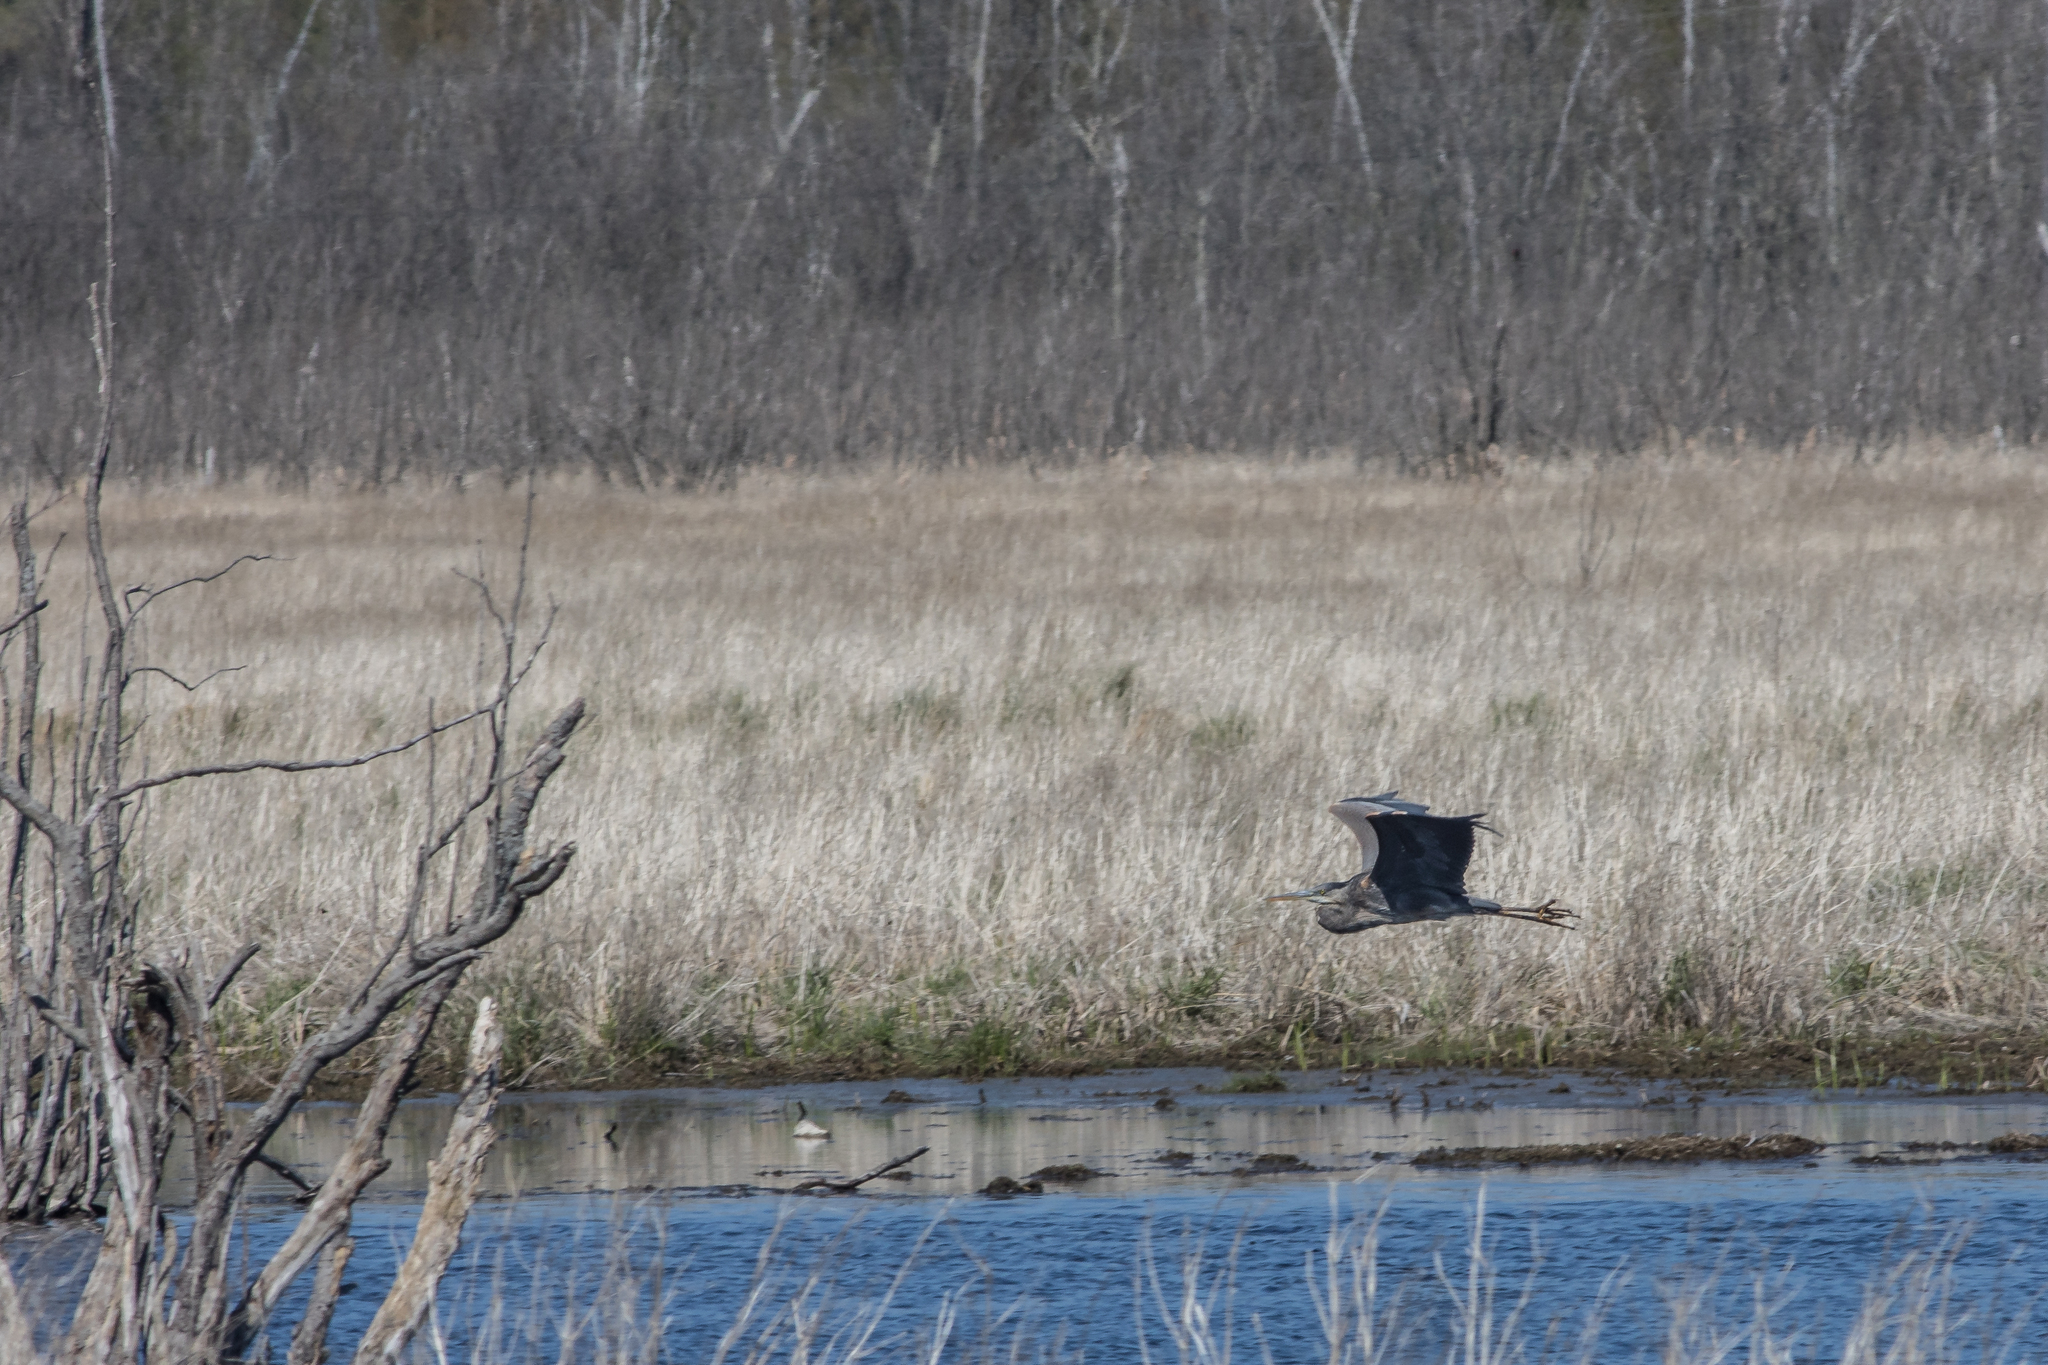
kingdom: Animalia
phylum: Chordata
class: Aves
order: Pelecaniformes
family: Ardeidae
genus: Ardea
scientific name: Ardea herodias
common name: Great blue heron
